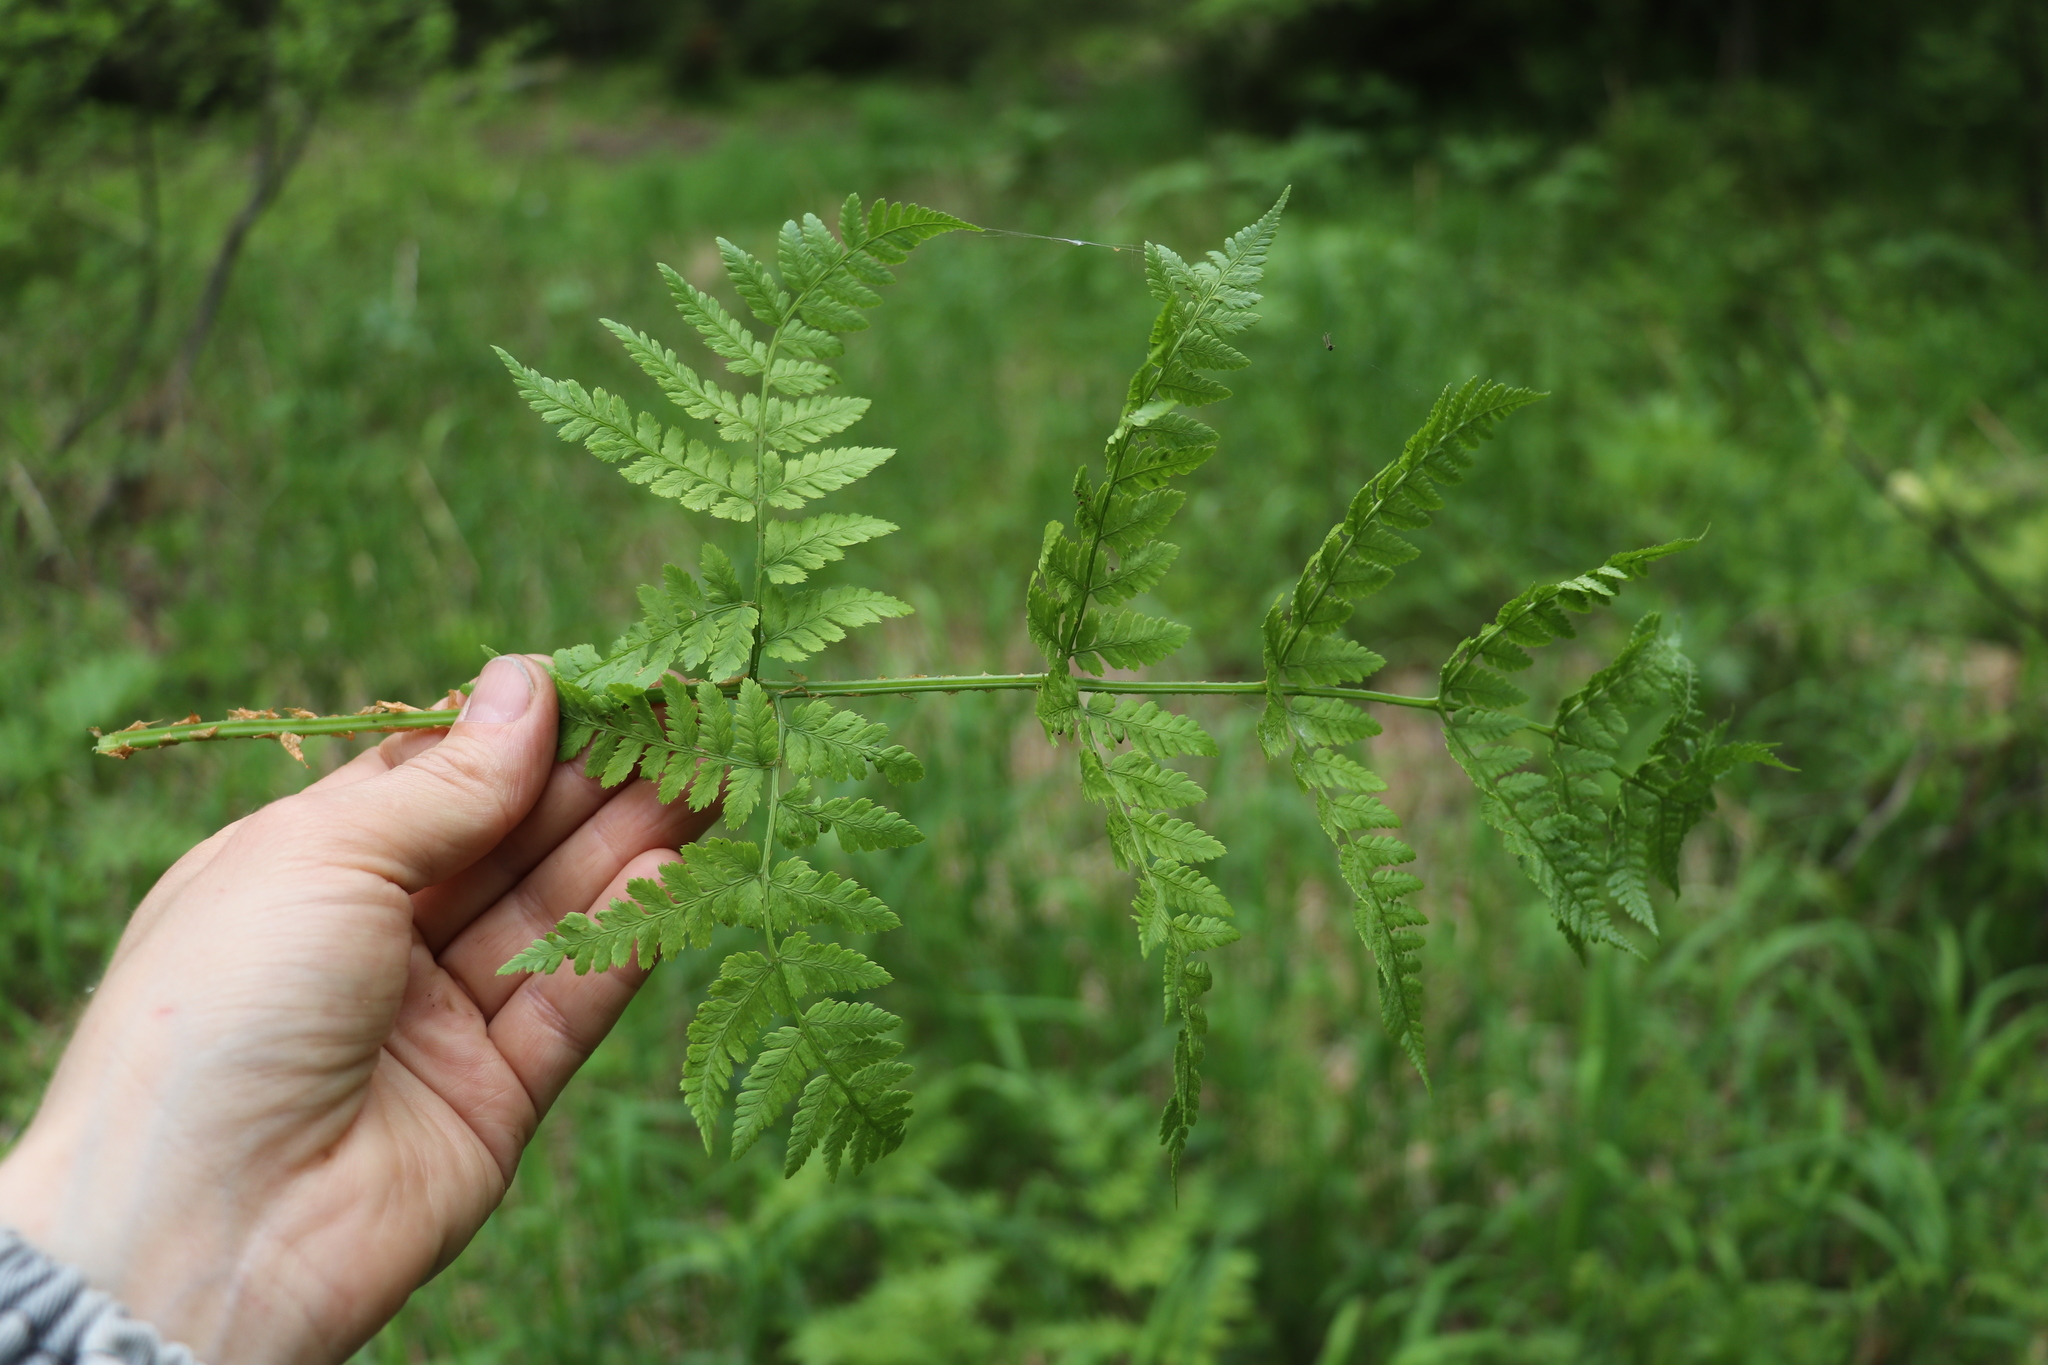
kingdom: Plantae
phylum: Tracheophyta
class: Polypodiopsida
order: Polypodiales
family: Dryopteridaceae
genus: Dryopteris
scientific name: Dryopteris expansa
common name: Northern buckler fern
